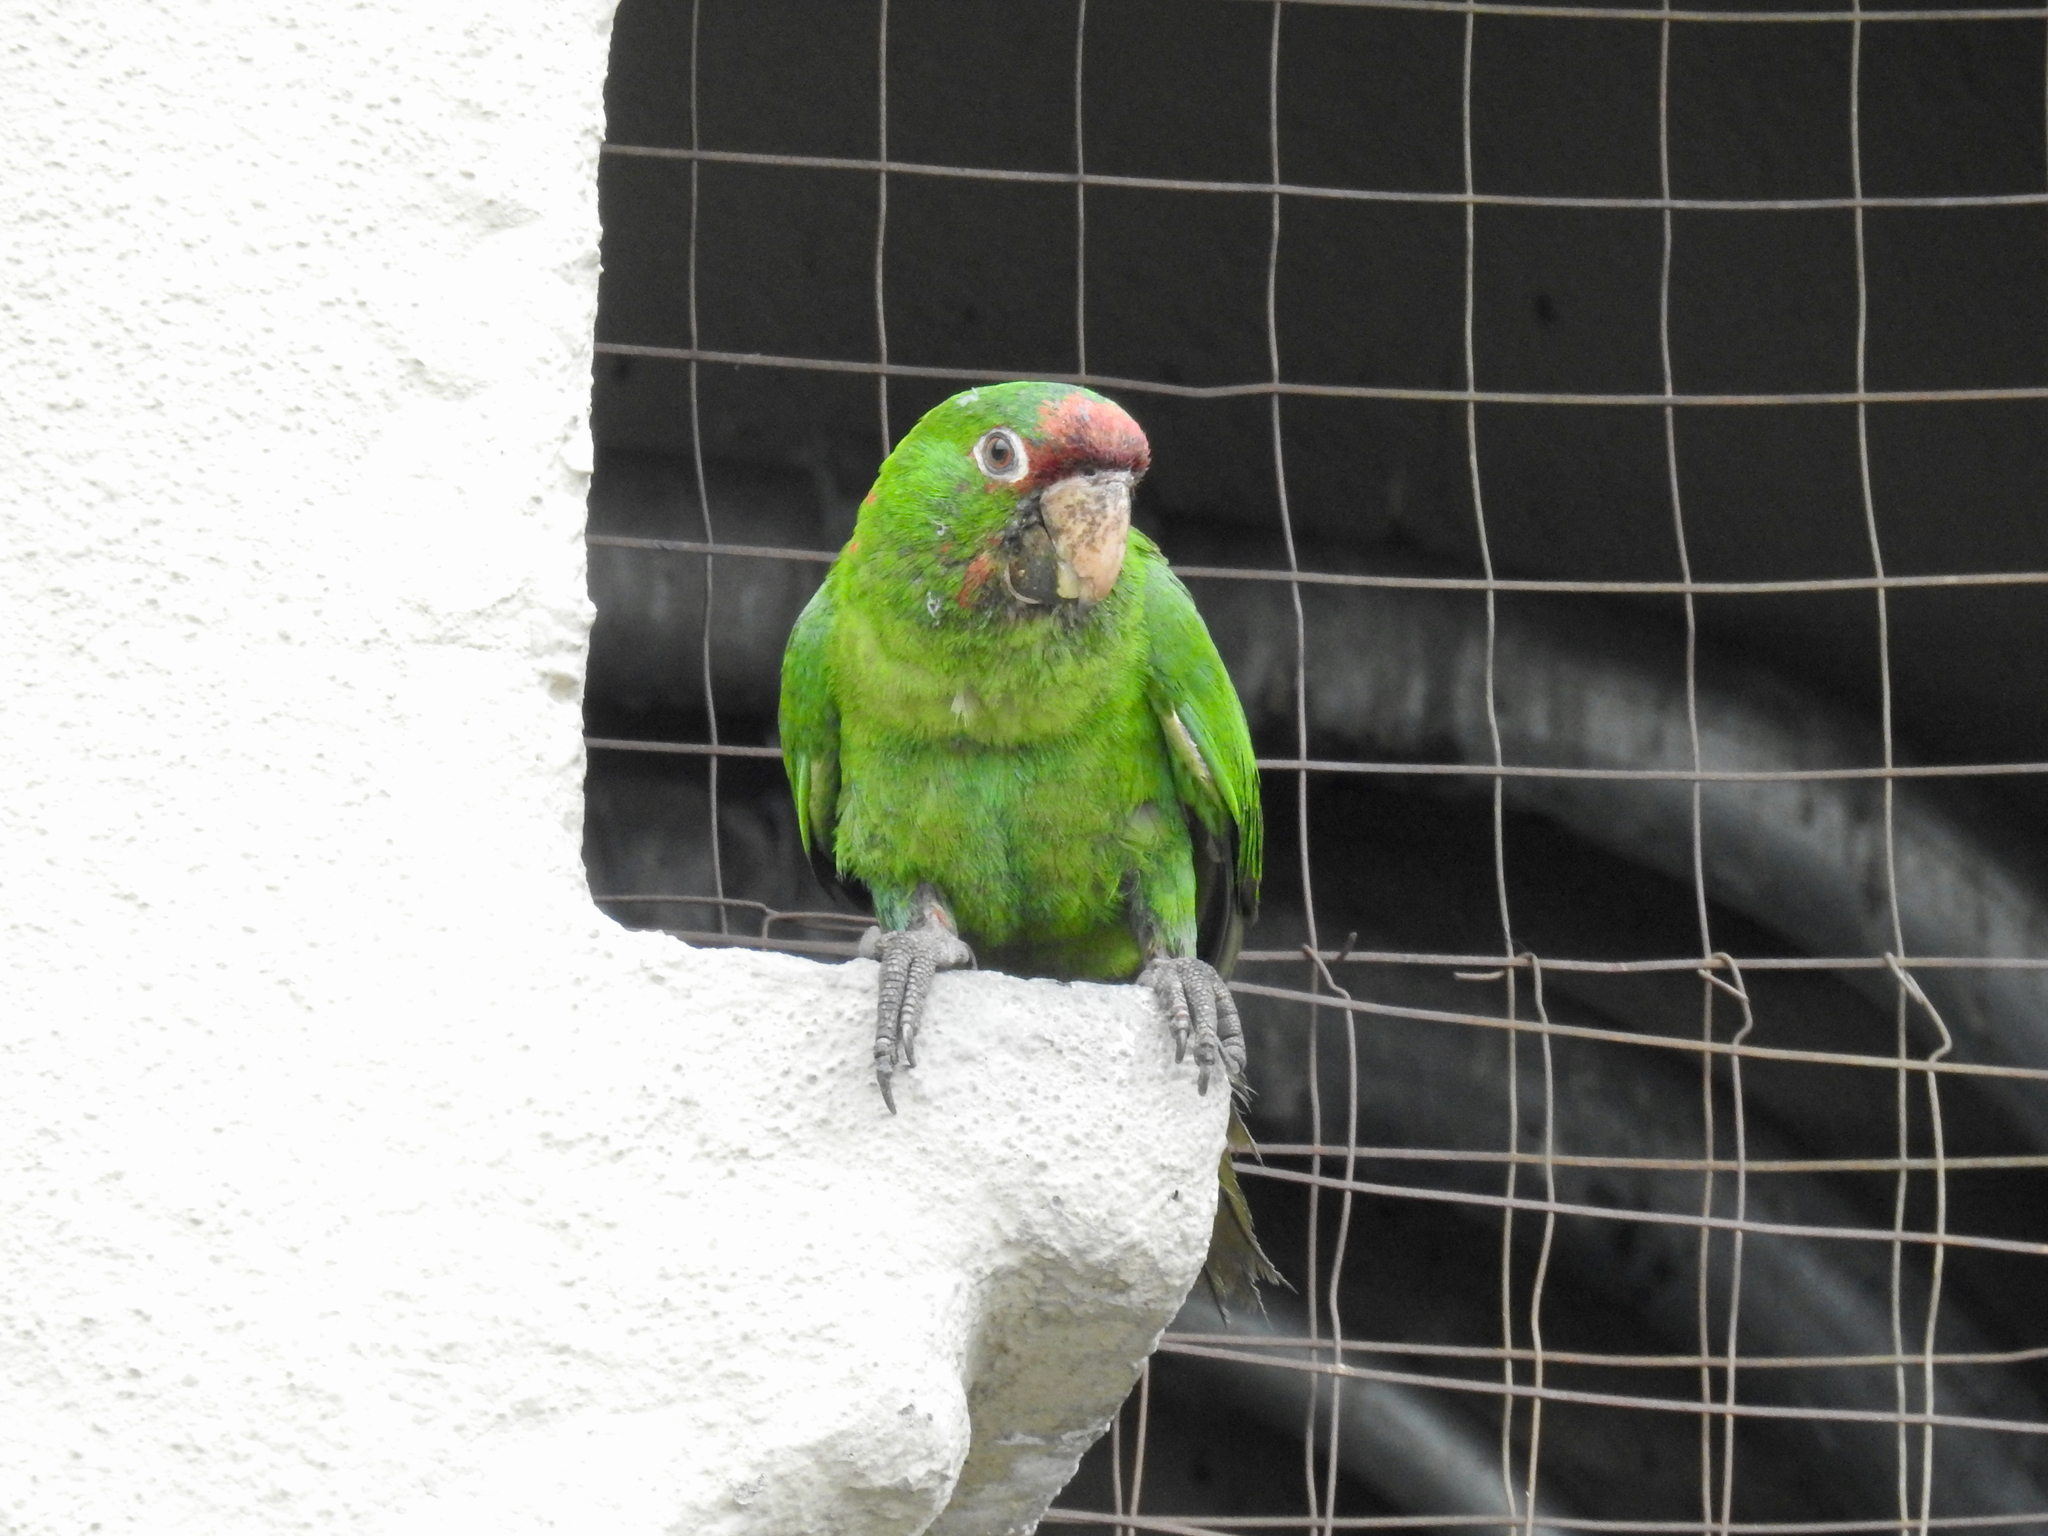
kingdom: Animalia
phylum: Chordata
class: Aves
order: Psittaciformes
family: Psittacidae
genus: Aratinga
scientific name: Aratinga mitrata
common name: Mitred parakeet
